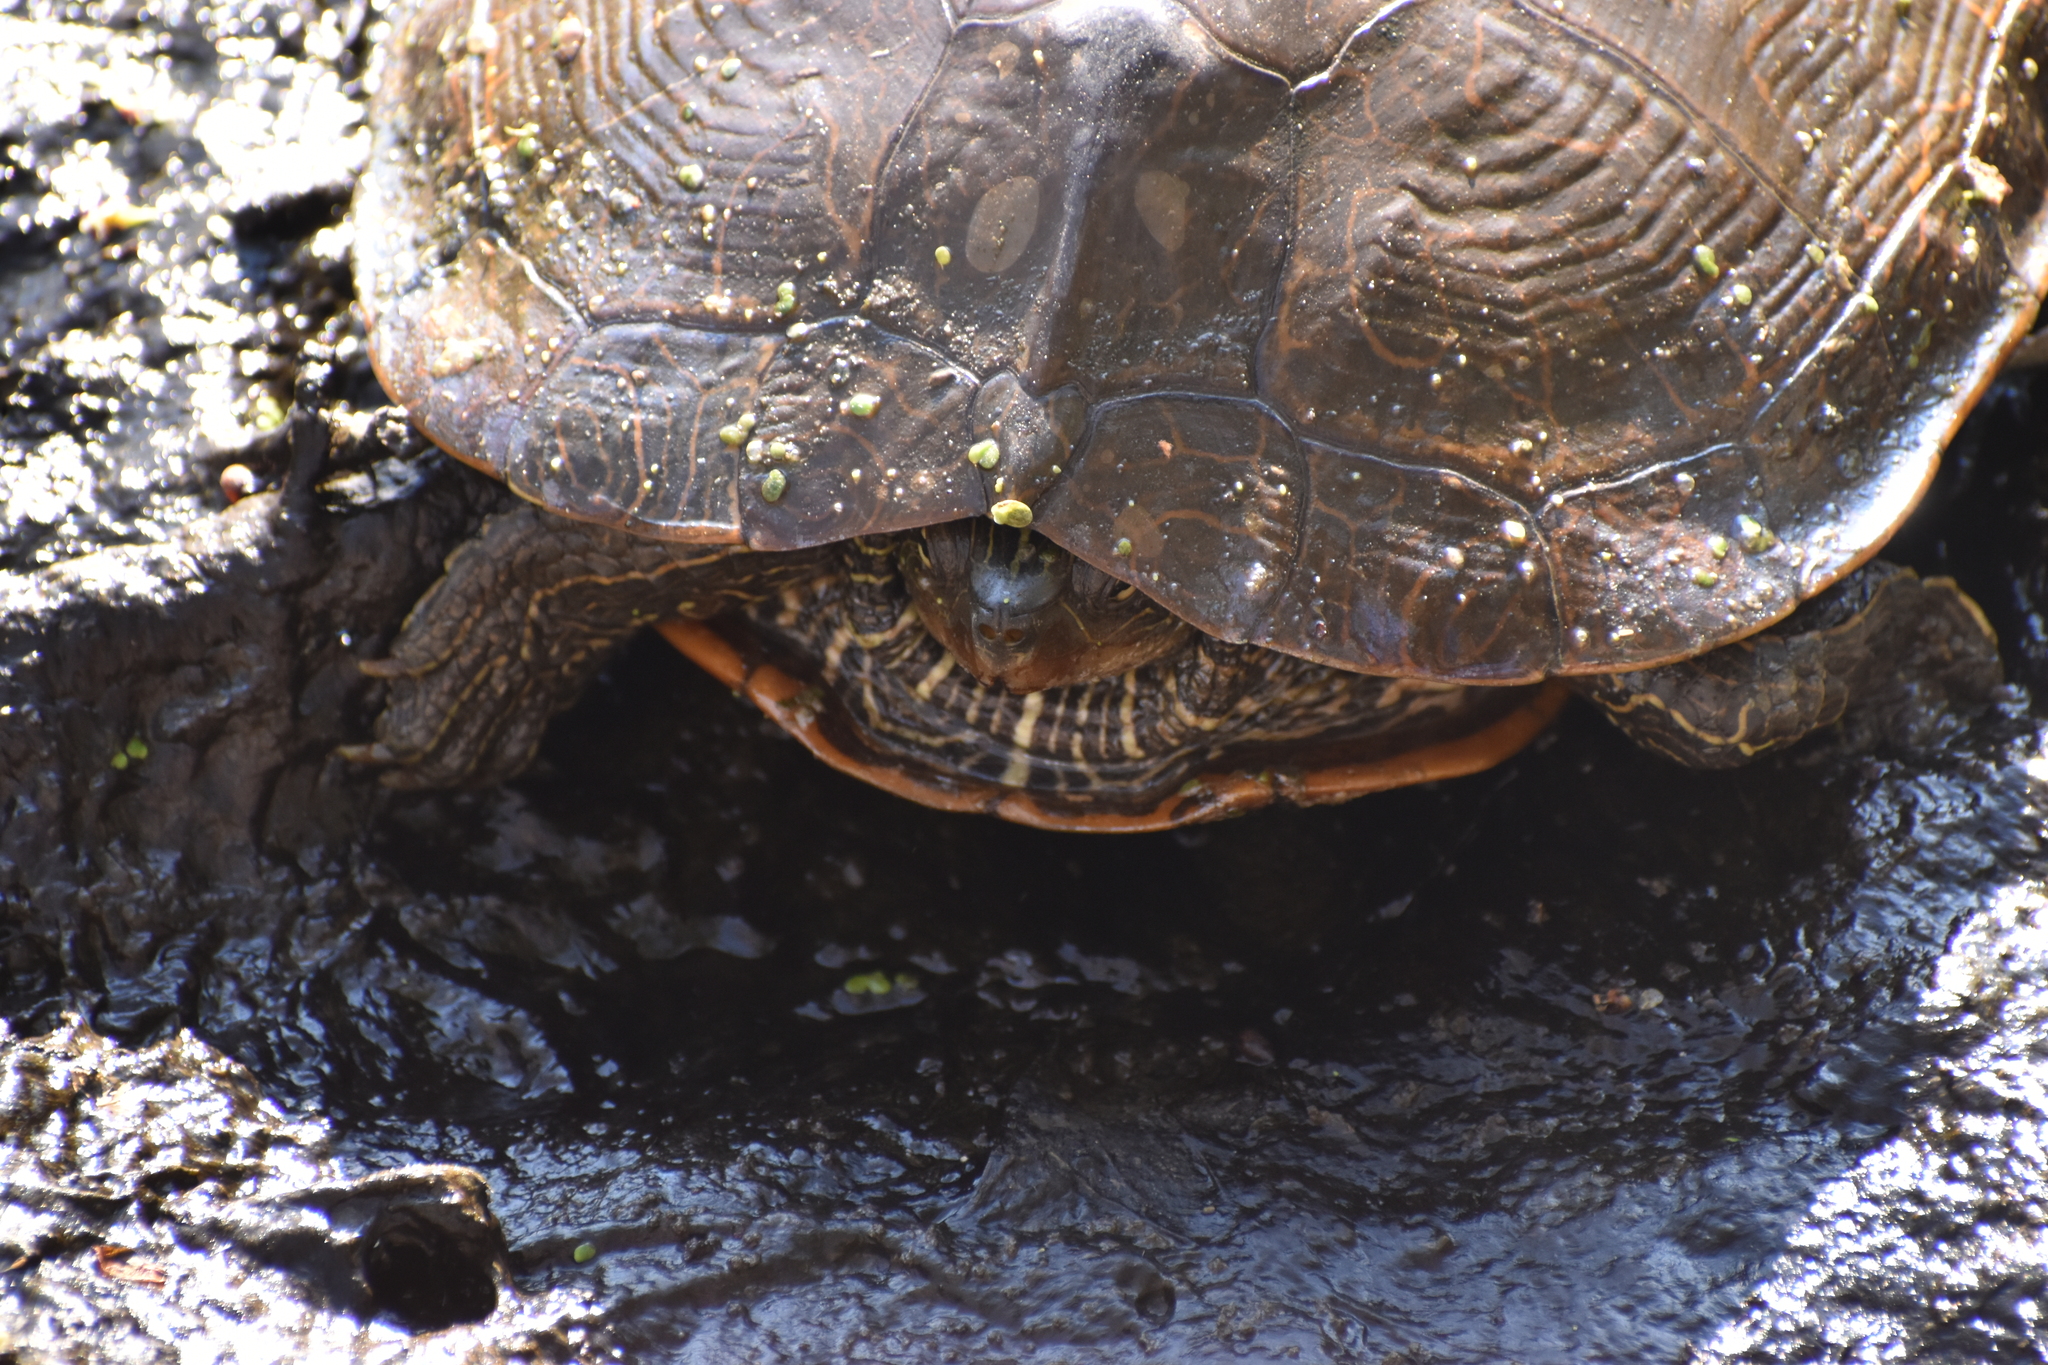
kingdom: Animalia
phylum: Chordata
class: Testudines
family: Emydidae
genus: Graptemys
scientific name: Graptemys geographica
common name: Common map turtle
